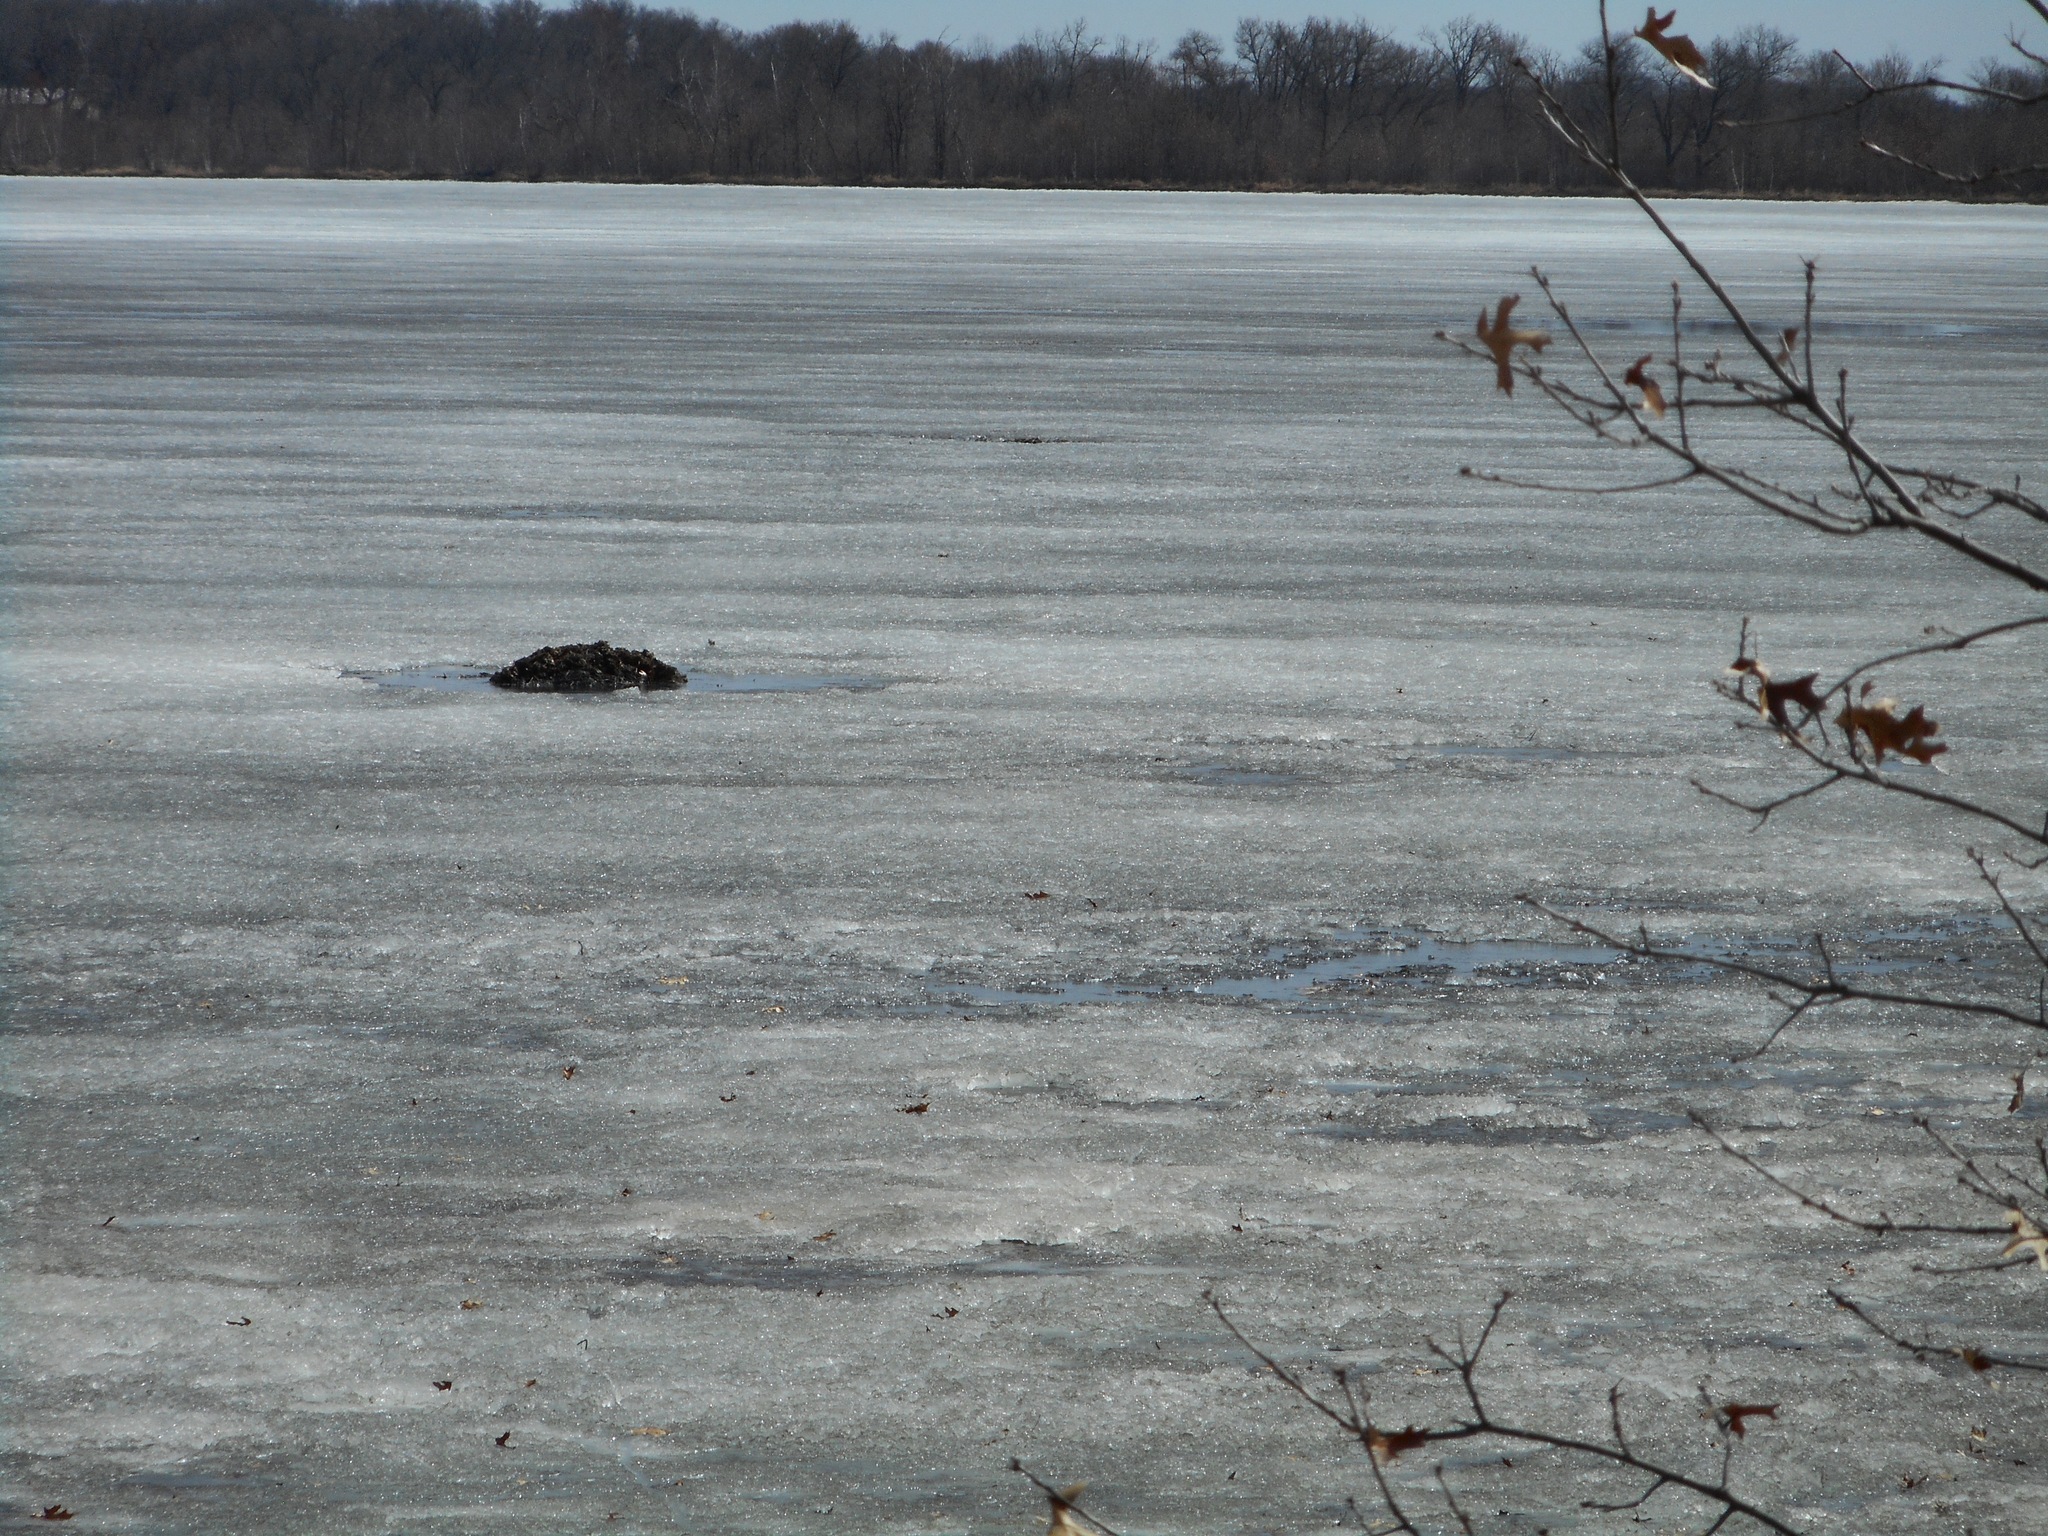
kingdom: Animalia
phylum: Chordata
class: Mammalia
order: Rodentia
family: Cricetidae
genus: Ondatra
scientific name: Ondatra zibethicus
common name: Muskrat
